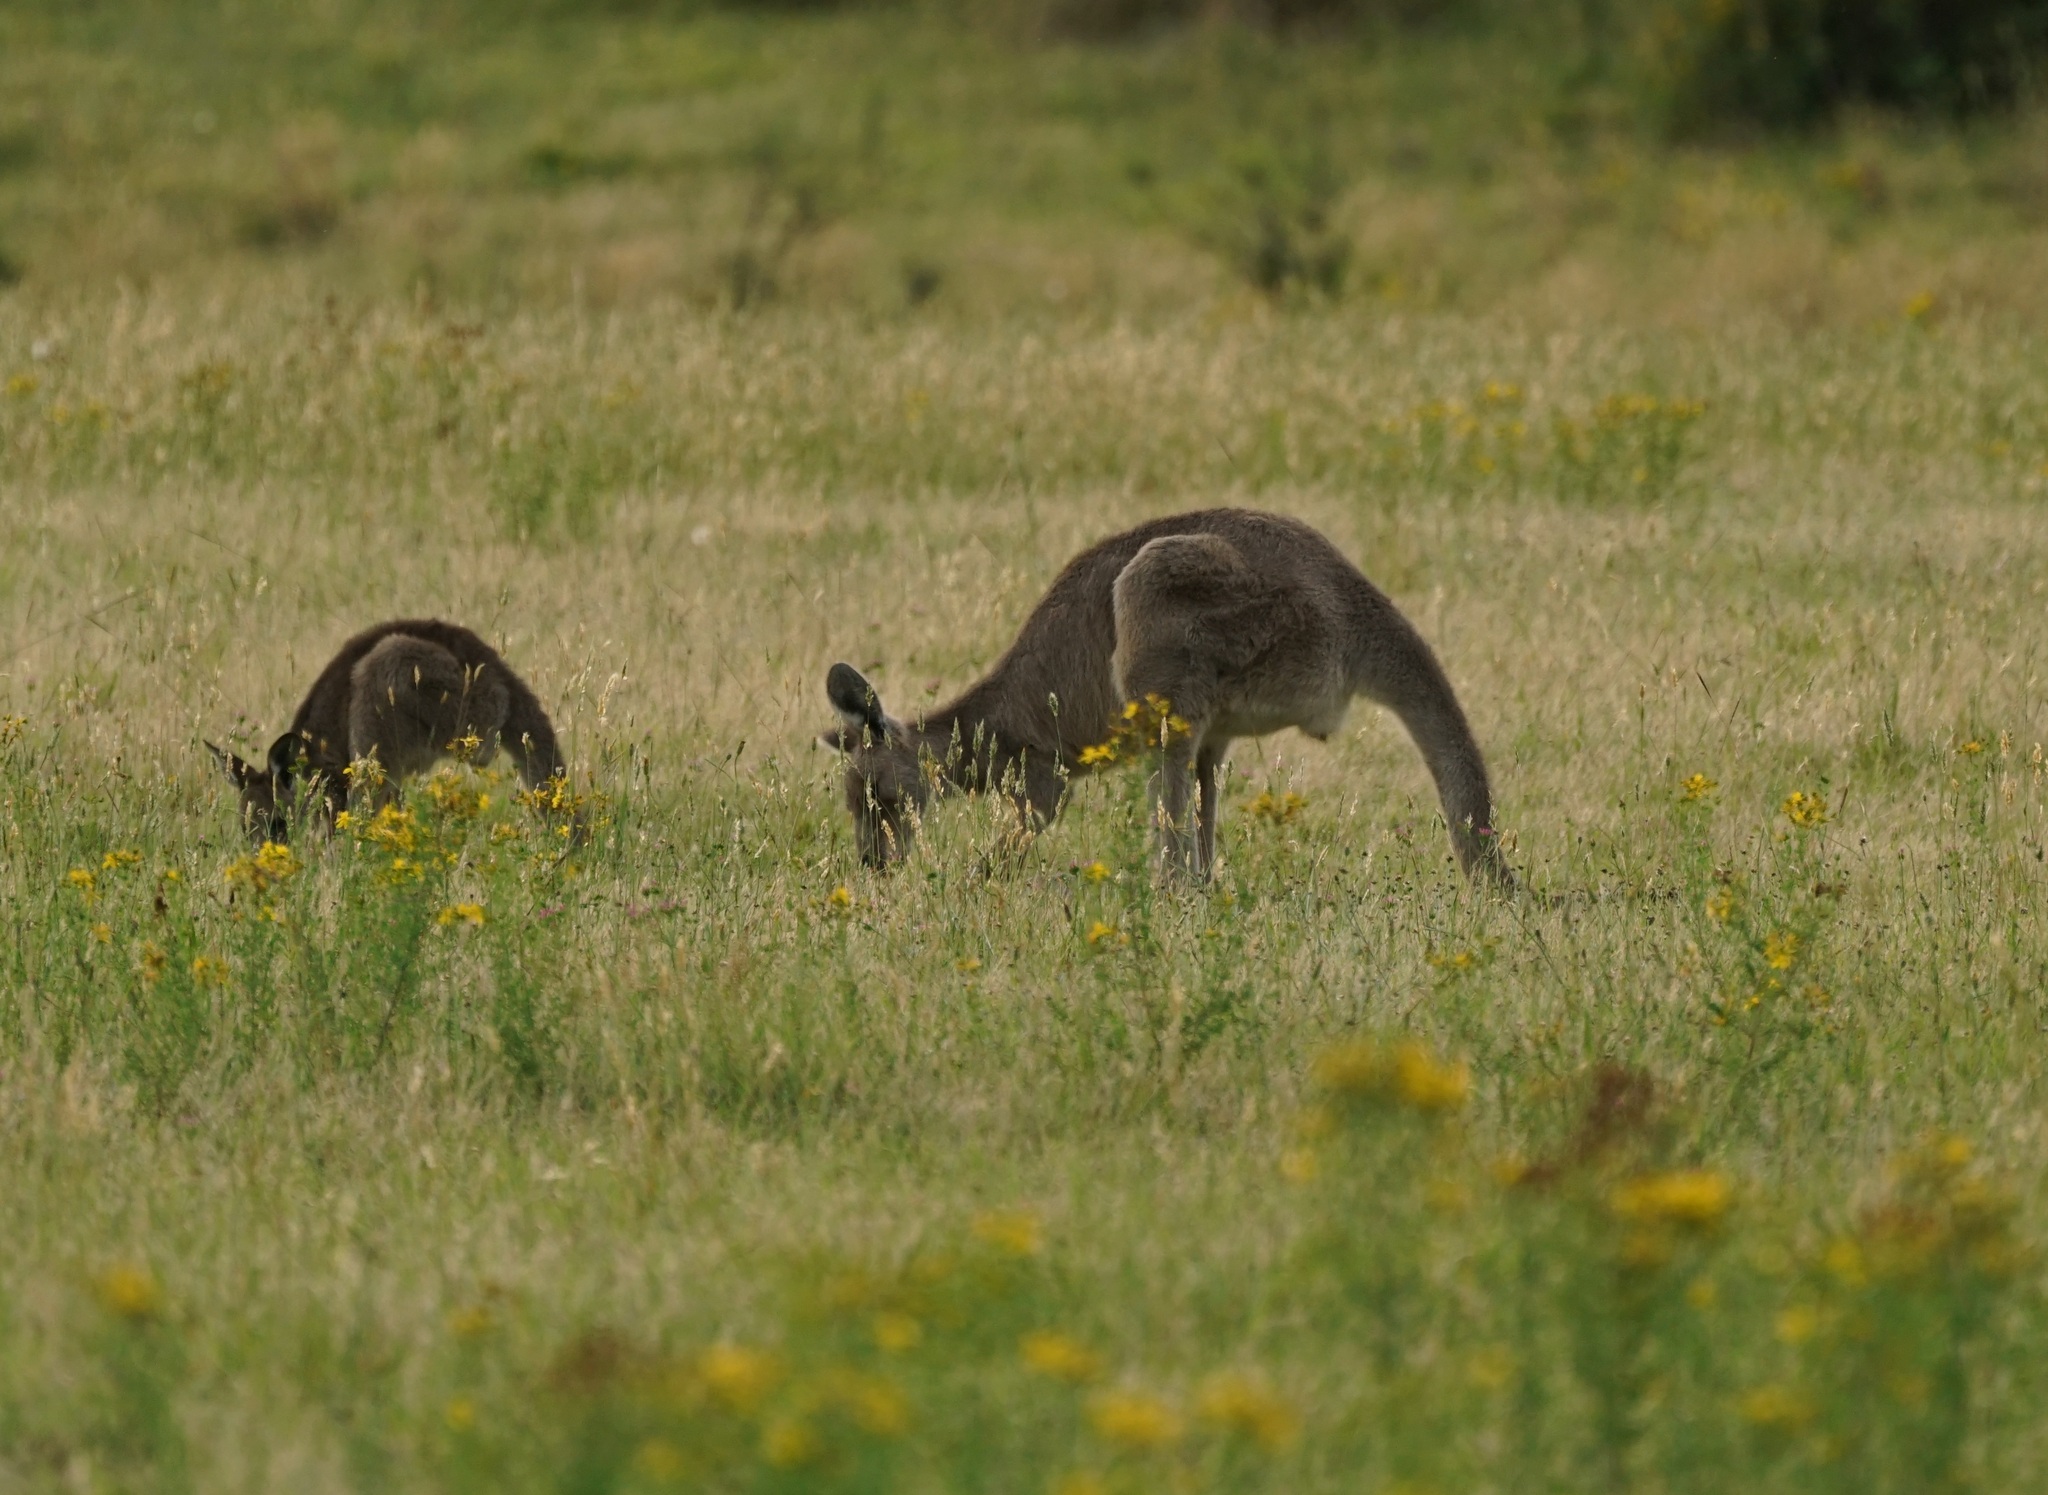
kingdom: Animalia
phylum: Chordata
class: Mammalia
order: Diprotodontia
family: Macropodidae
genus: Macropus
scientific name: Macropus giganteus
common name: Eastern grey kangaroo
